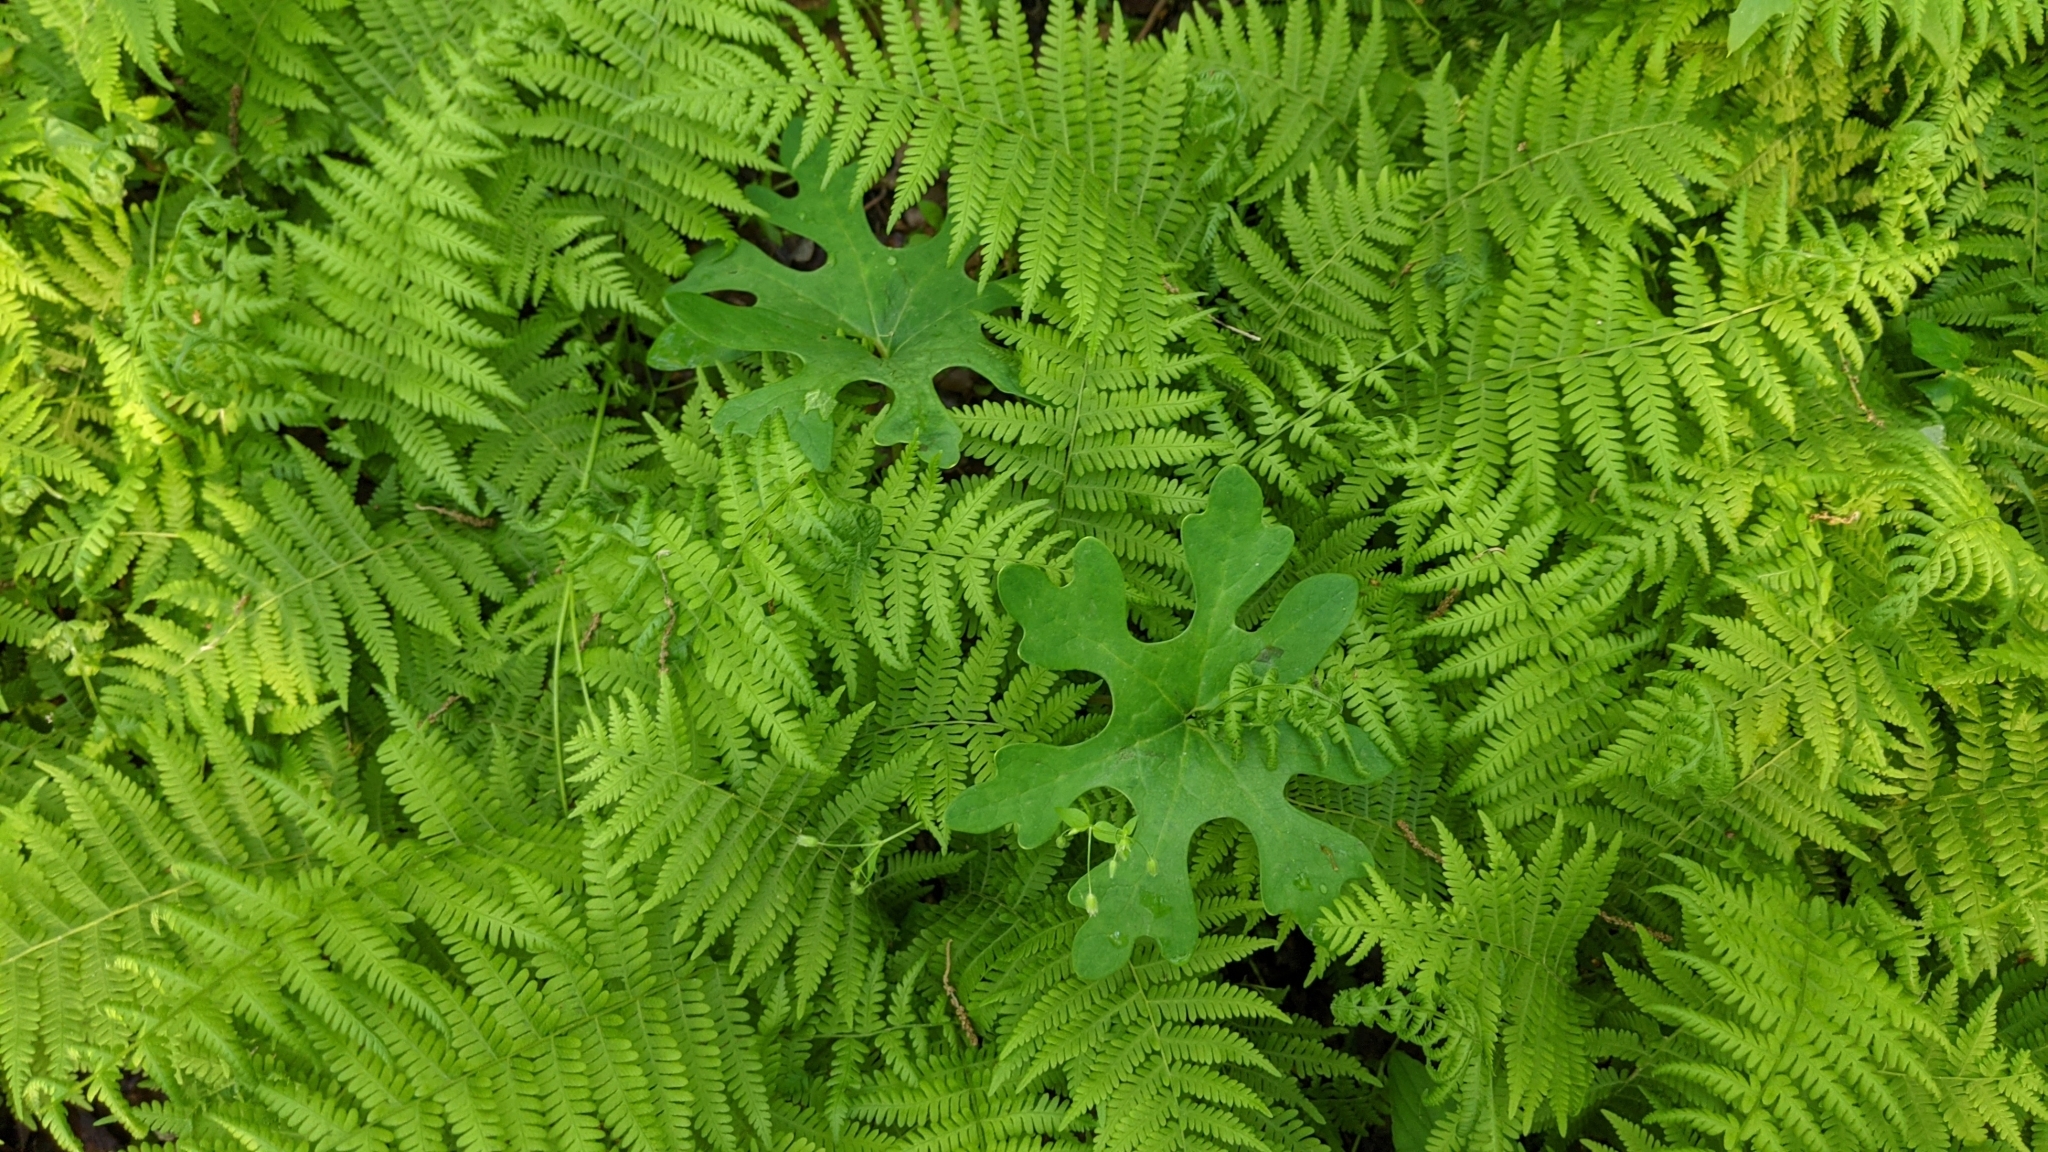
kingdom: Plantae
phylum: Tracheophyta
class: Polypodiopsida
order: Polypodiales
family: Thelypteridaceae
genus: Amauropelta
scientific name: Amauropelta noveboracensis
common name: New york fern
